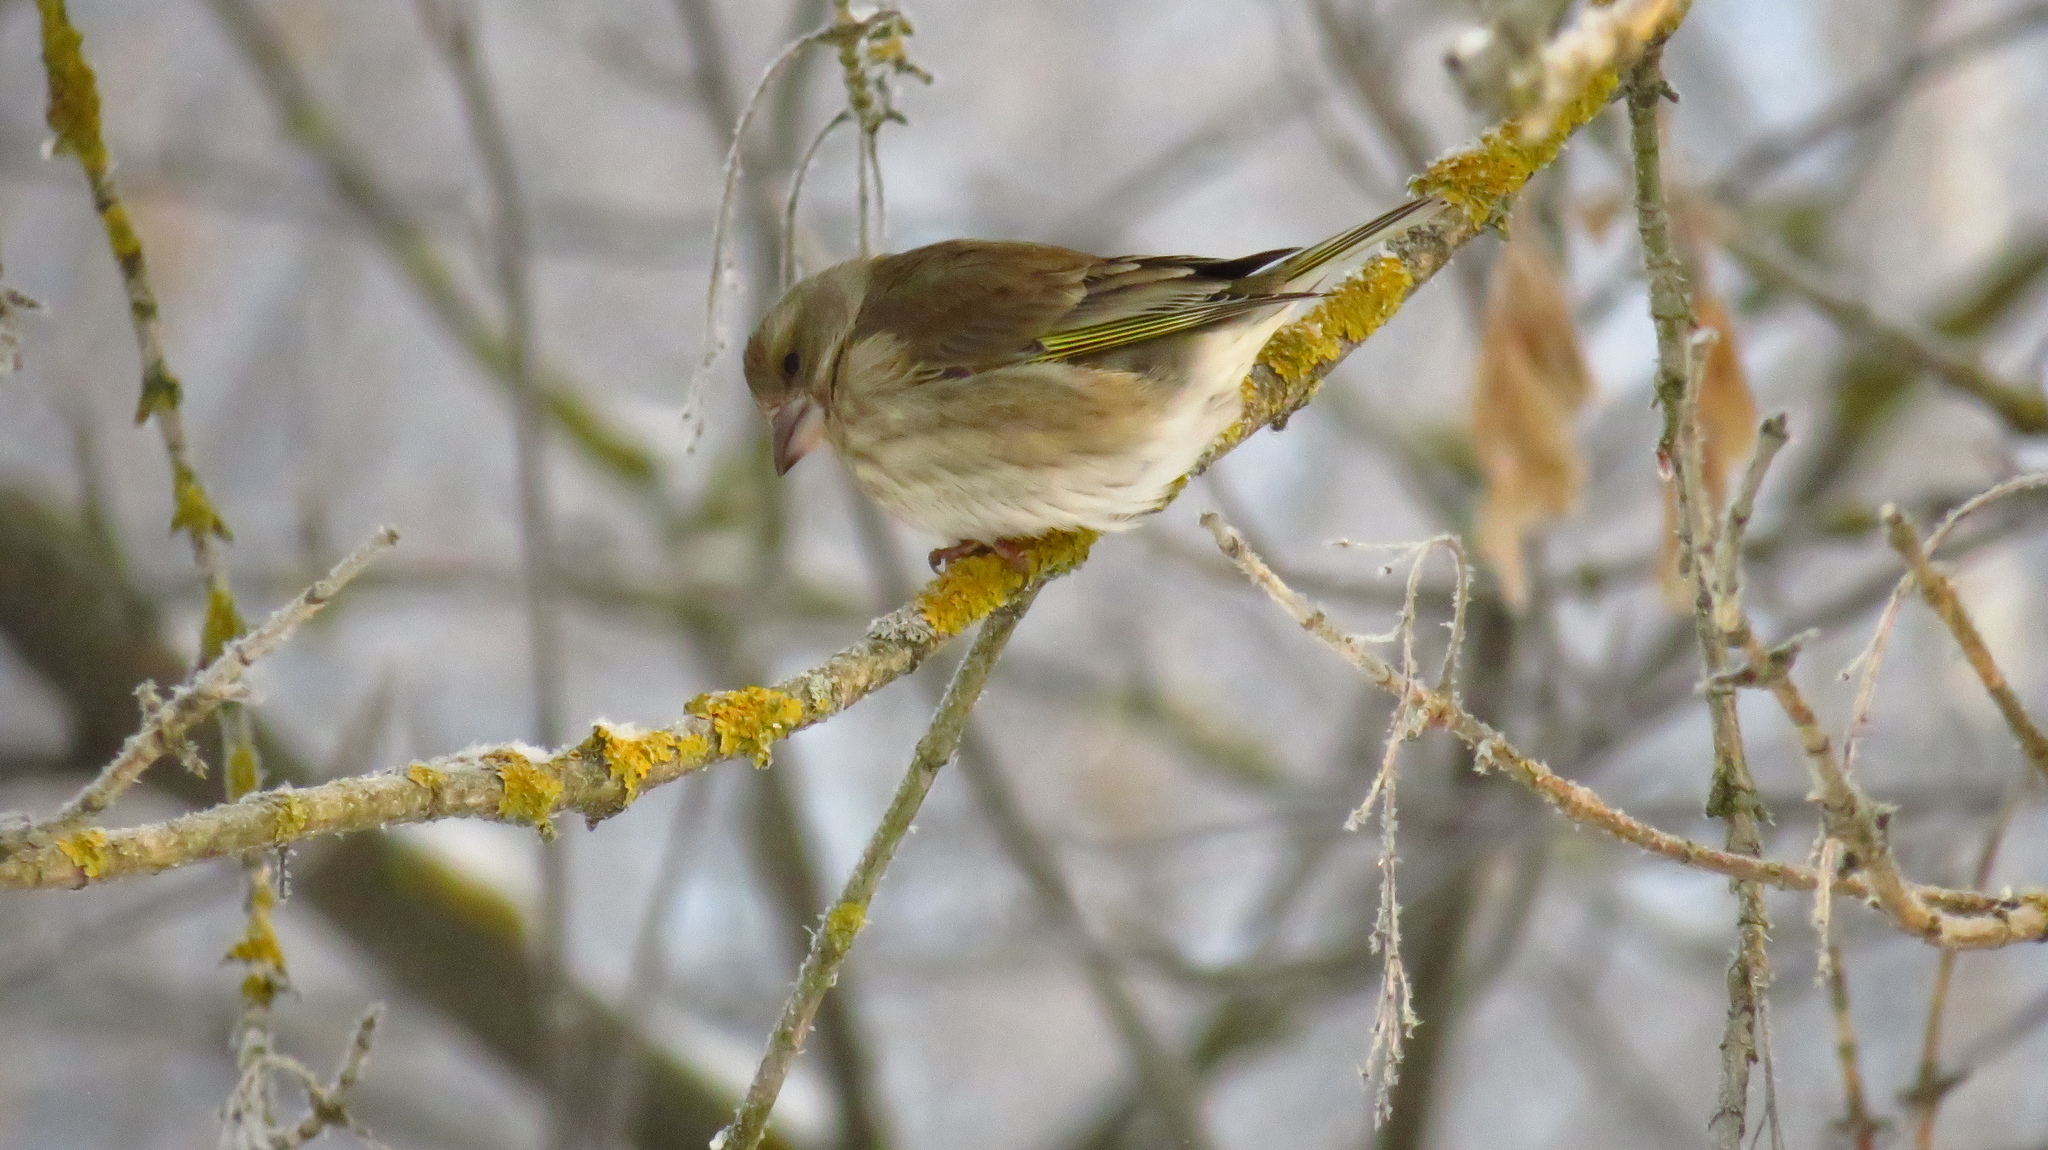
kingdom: Plantae
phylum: Tracheophyta
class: Liliopsida
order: Poales
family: Poaceae
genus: Chloris
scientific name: Chloris chloris
